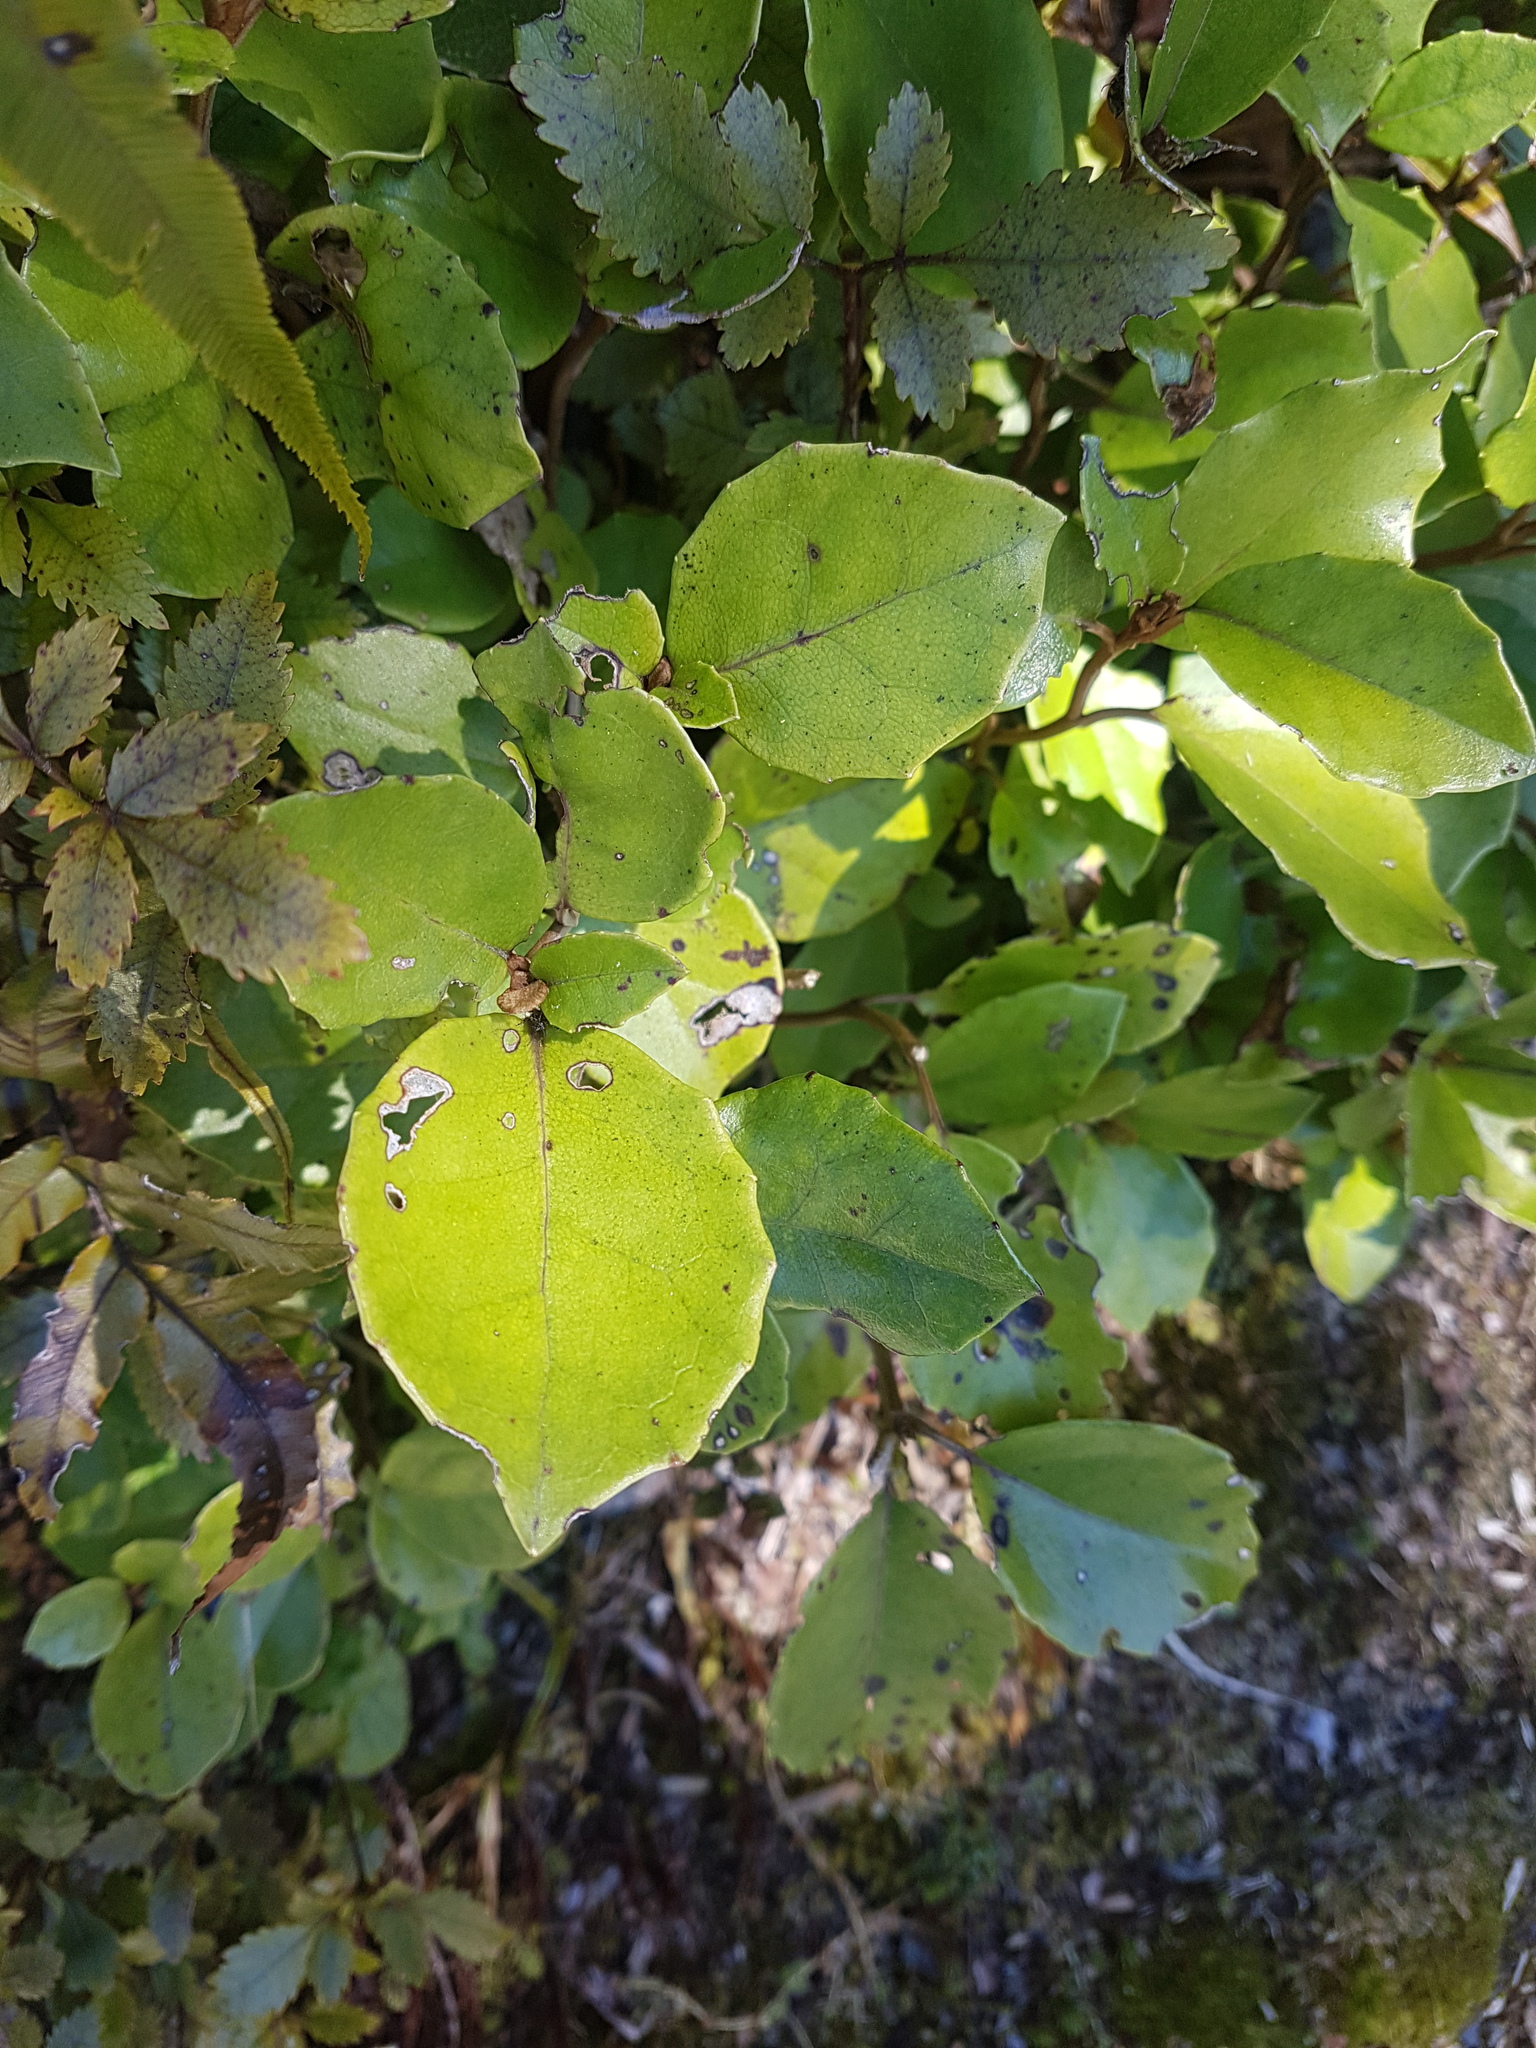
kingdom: Plantae
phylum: Tracheophyta
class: Magnoliopsida
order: Asterales
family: Asteraceae
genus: Olearia
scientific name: Olearia arborescens
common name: Glossy tree daisy
